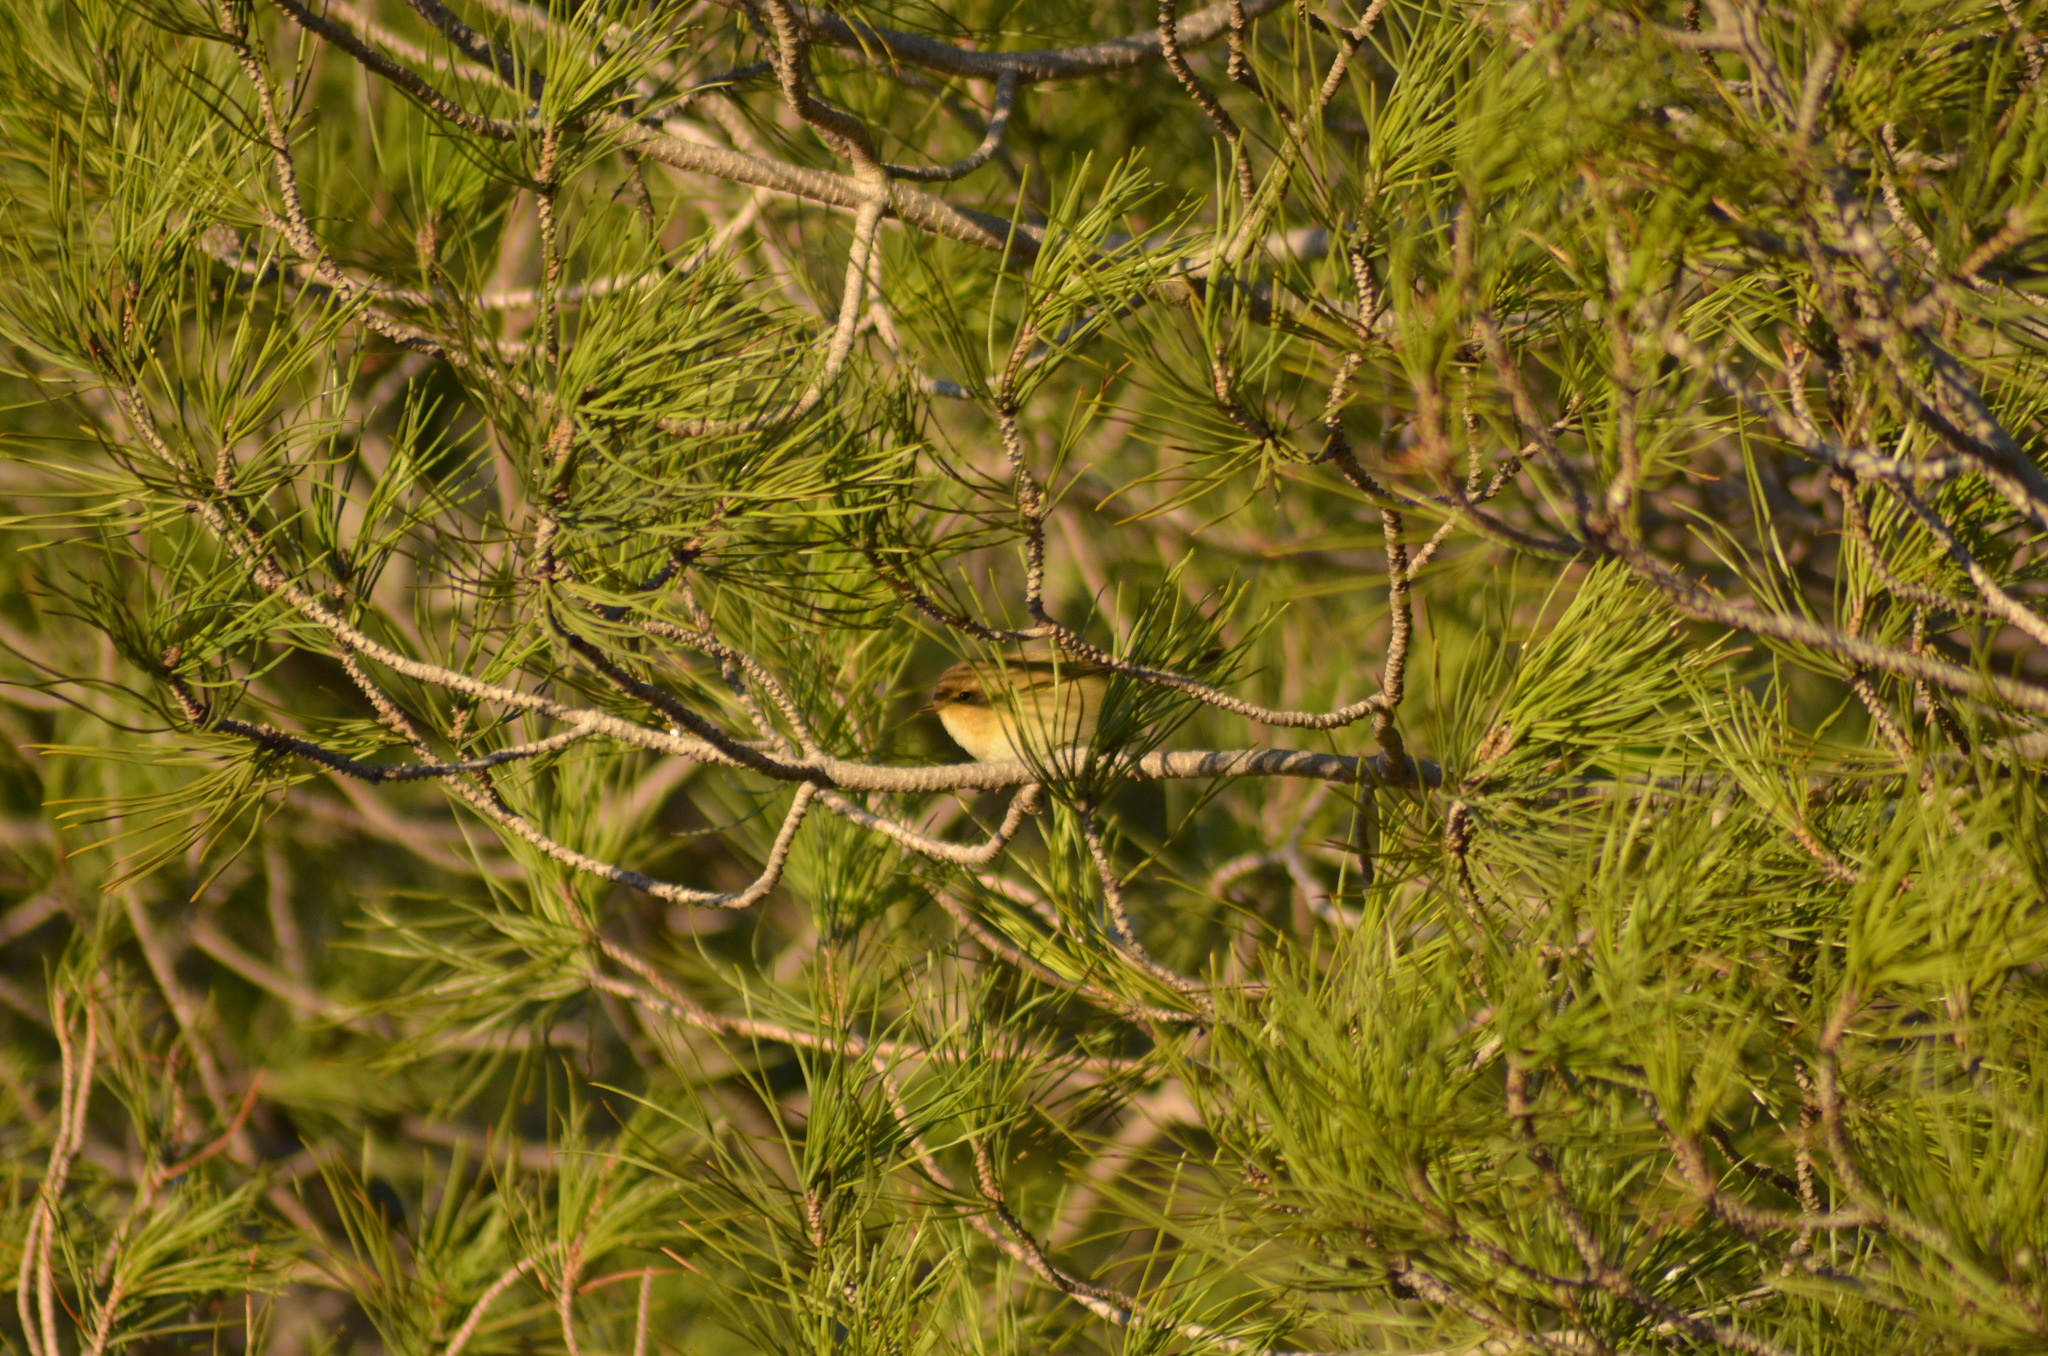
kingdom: Animalia
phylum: Chordata
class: Aves
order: Passeriformes
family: Phylloscopidae
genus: Phylloscopus
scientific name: Phylloscopus collybita
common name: Common chiffchaff
